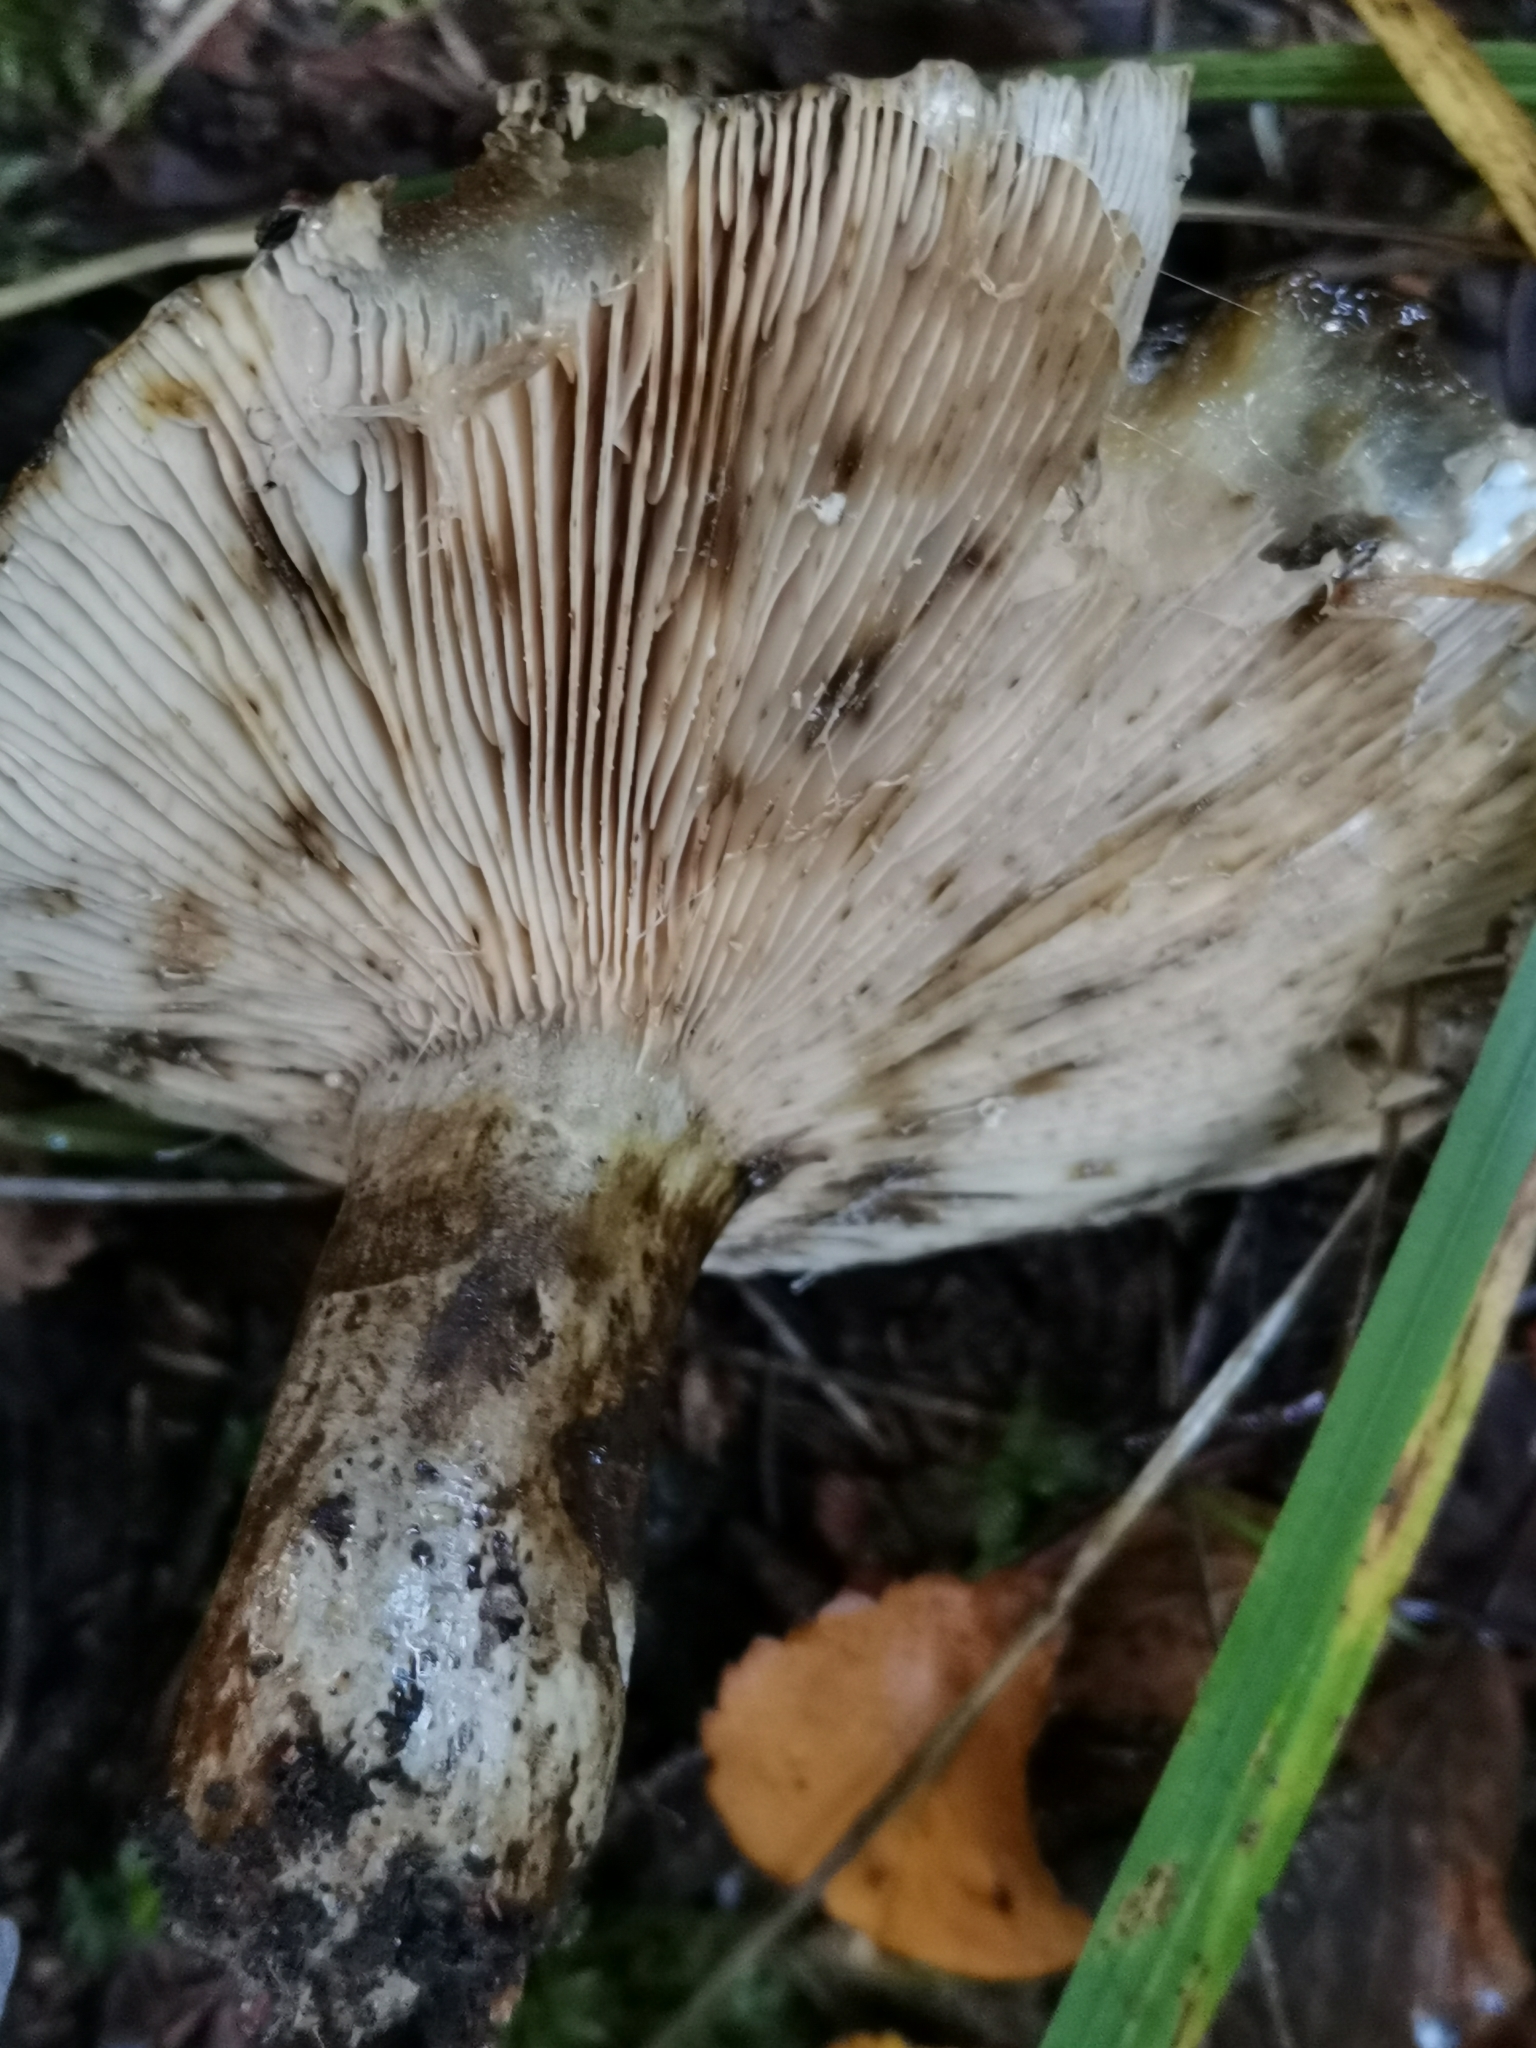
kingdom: Fungi
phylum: Basidiomycota
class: Agaricomycetes
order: Russulales
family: Russulaceae
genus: Lactarius
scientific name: Lactarius turpis
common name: Ugly milk-cap
